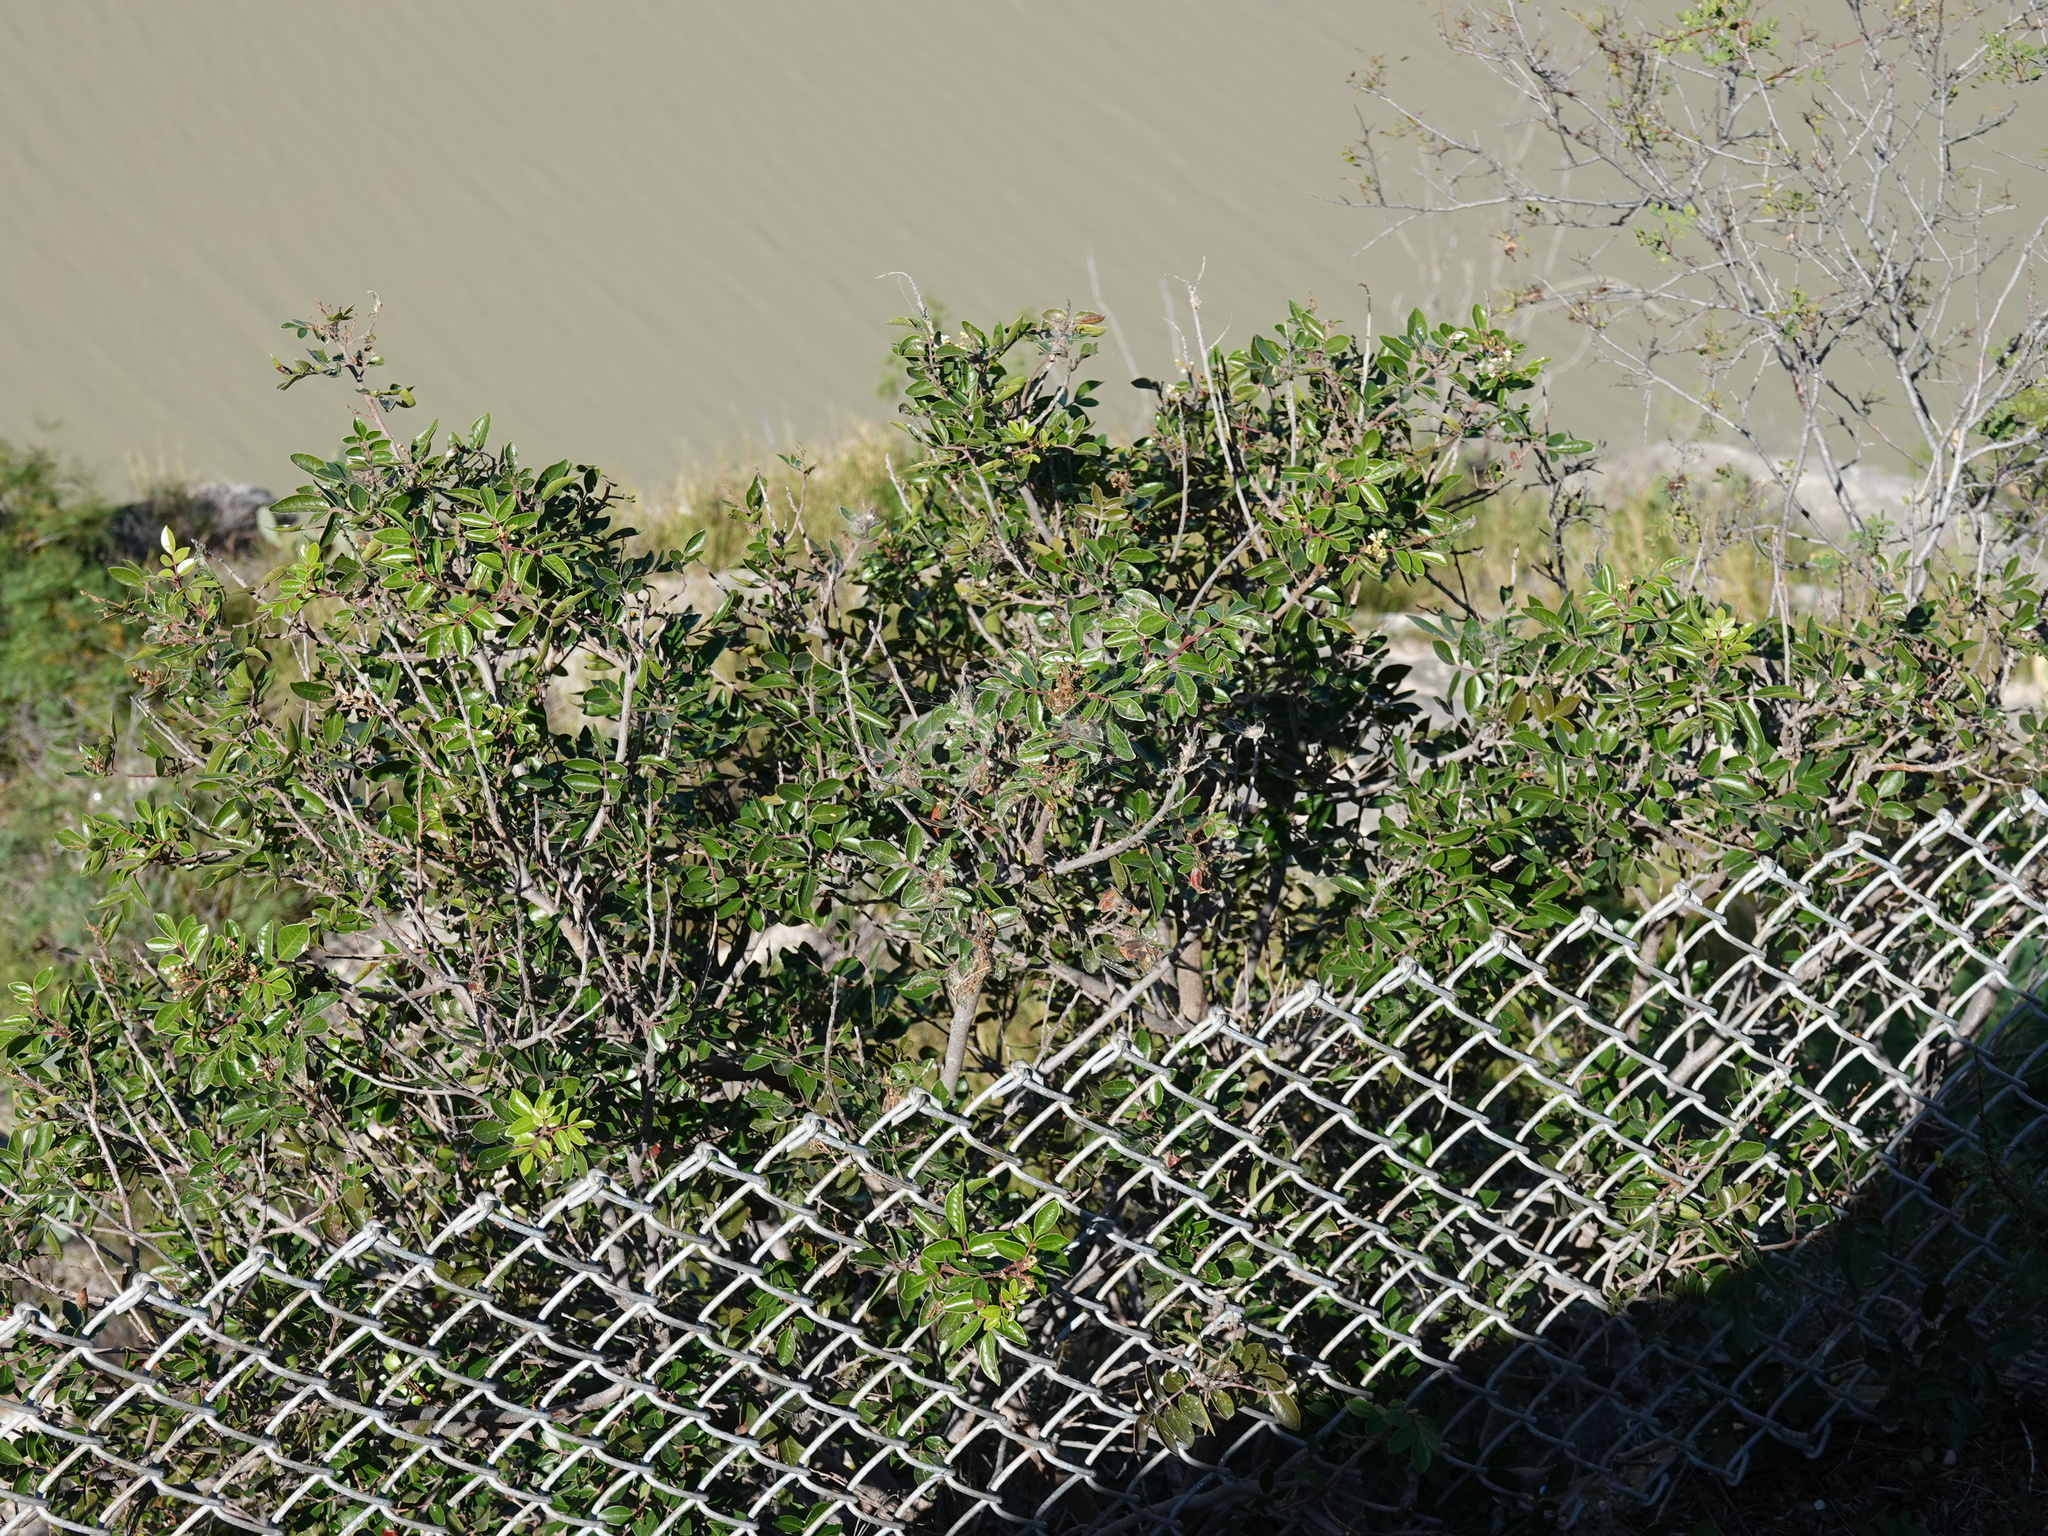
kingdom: Plantae
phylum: Tracheophyta
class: Magnoliopsida
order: Sapindales
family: Anacardiaceae
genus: Rhus
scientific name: Rhus virens
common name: Evergreen sumac
